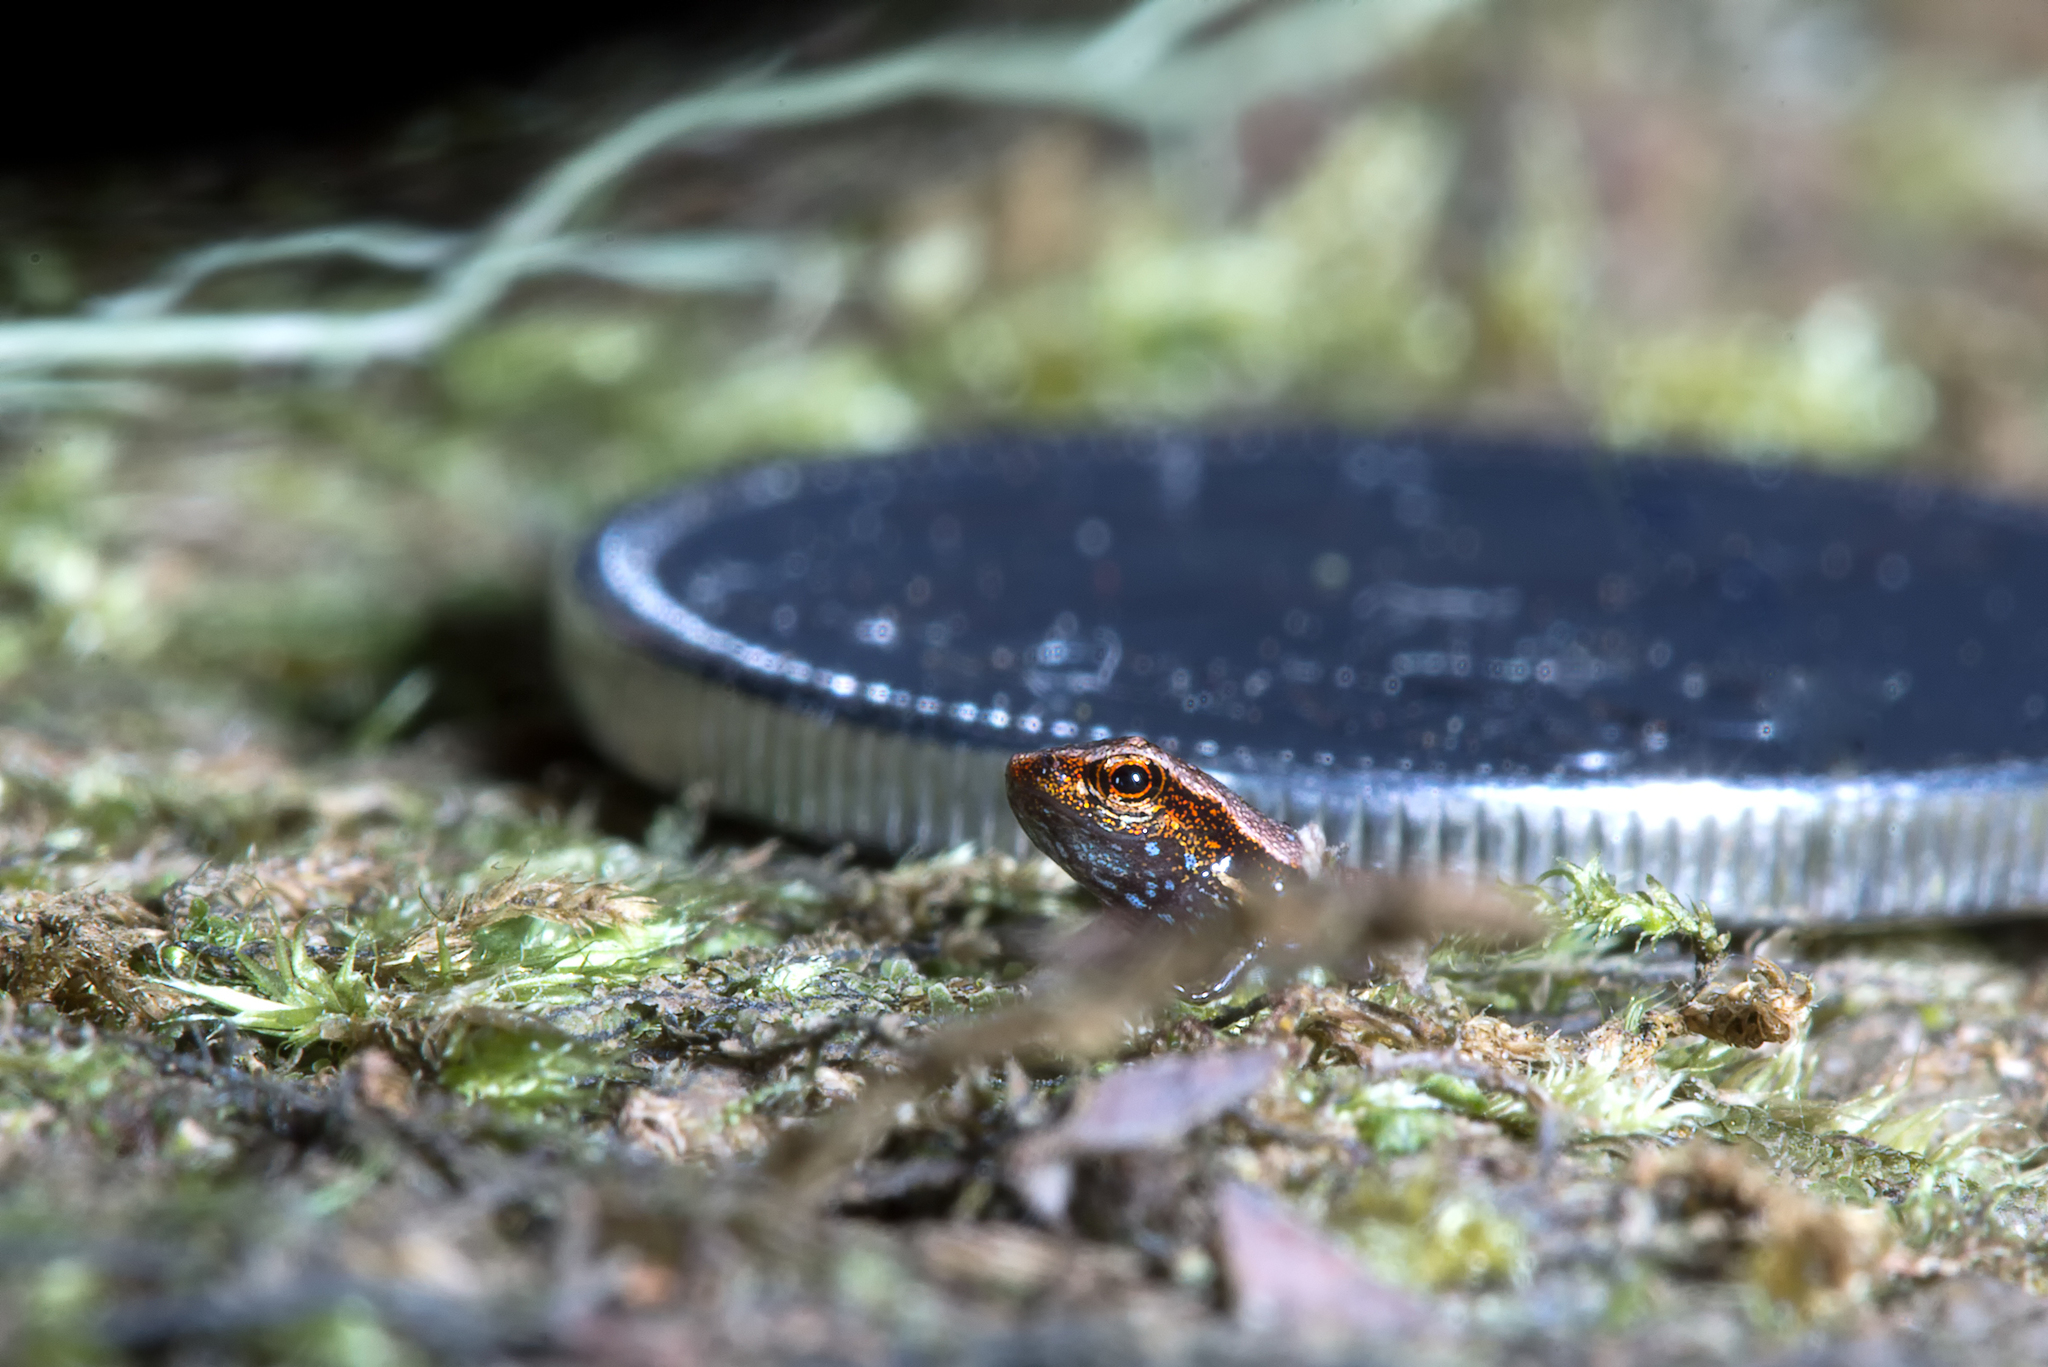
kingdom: Animalia
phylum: Chordata
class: Amphibia
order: Anura
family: Sooglossidae
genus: Sechellophryne
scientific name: Sechellophryne gardineri
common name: Gardiner's seychelles frog
